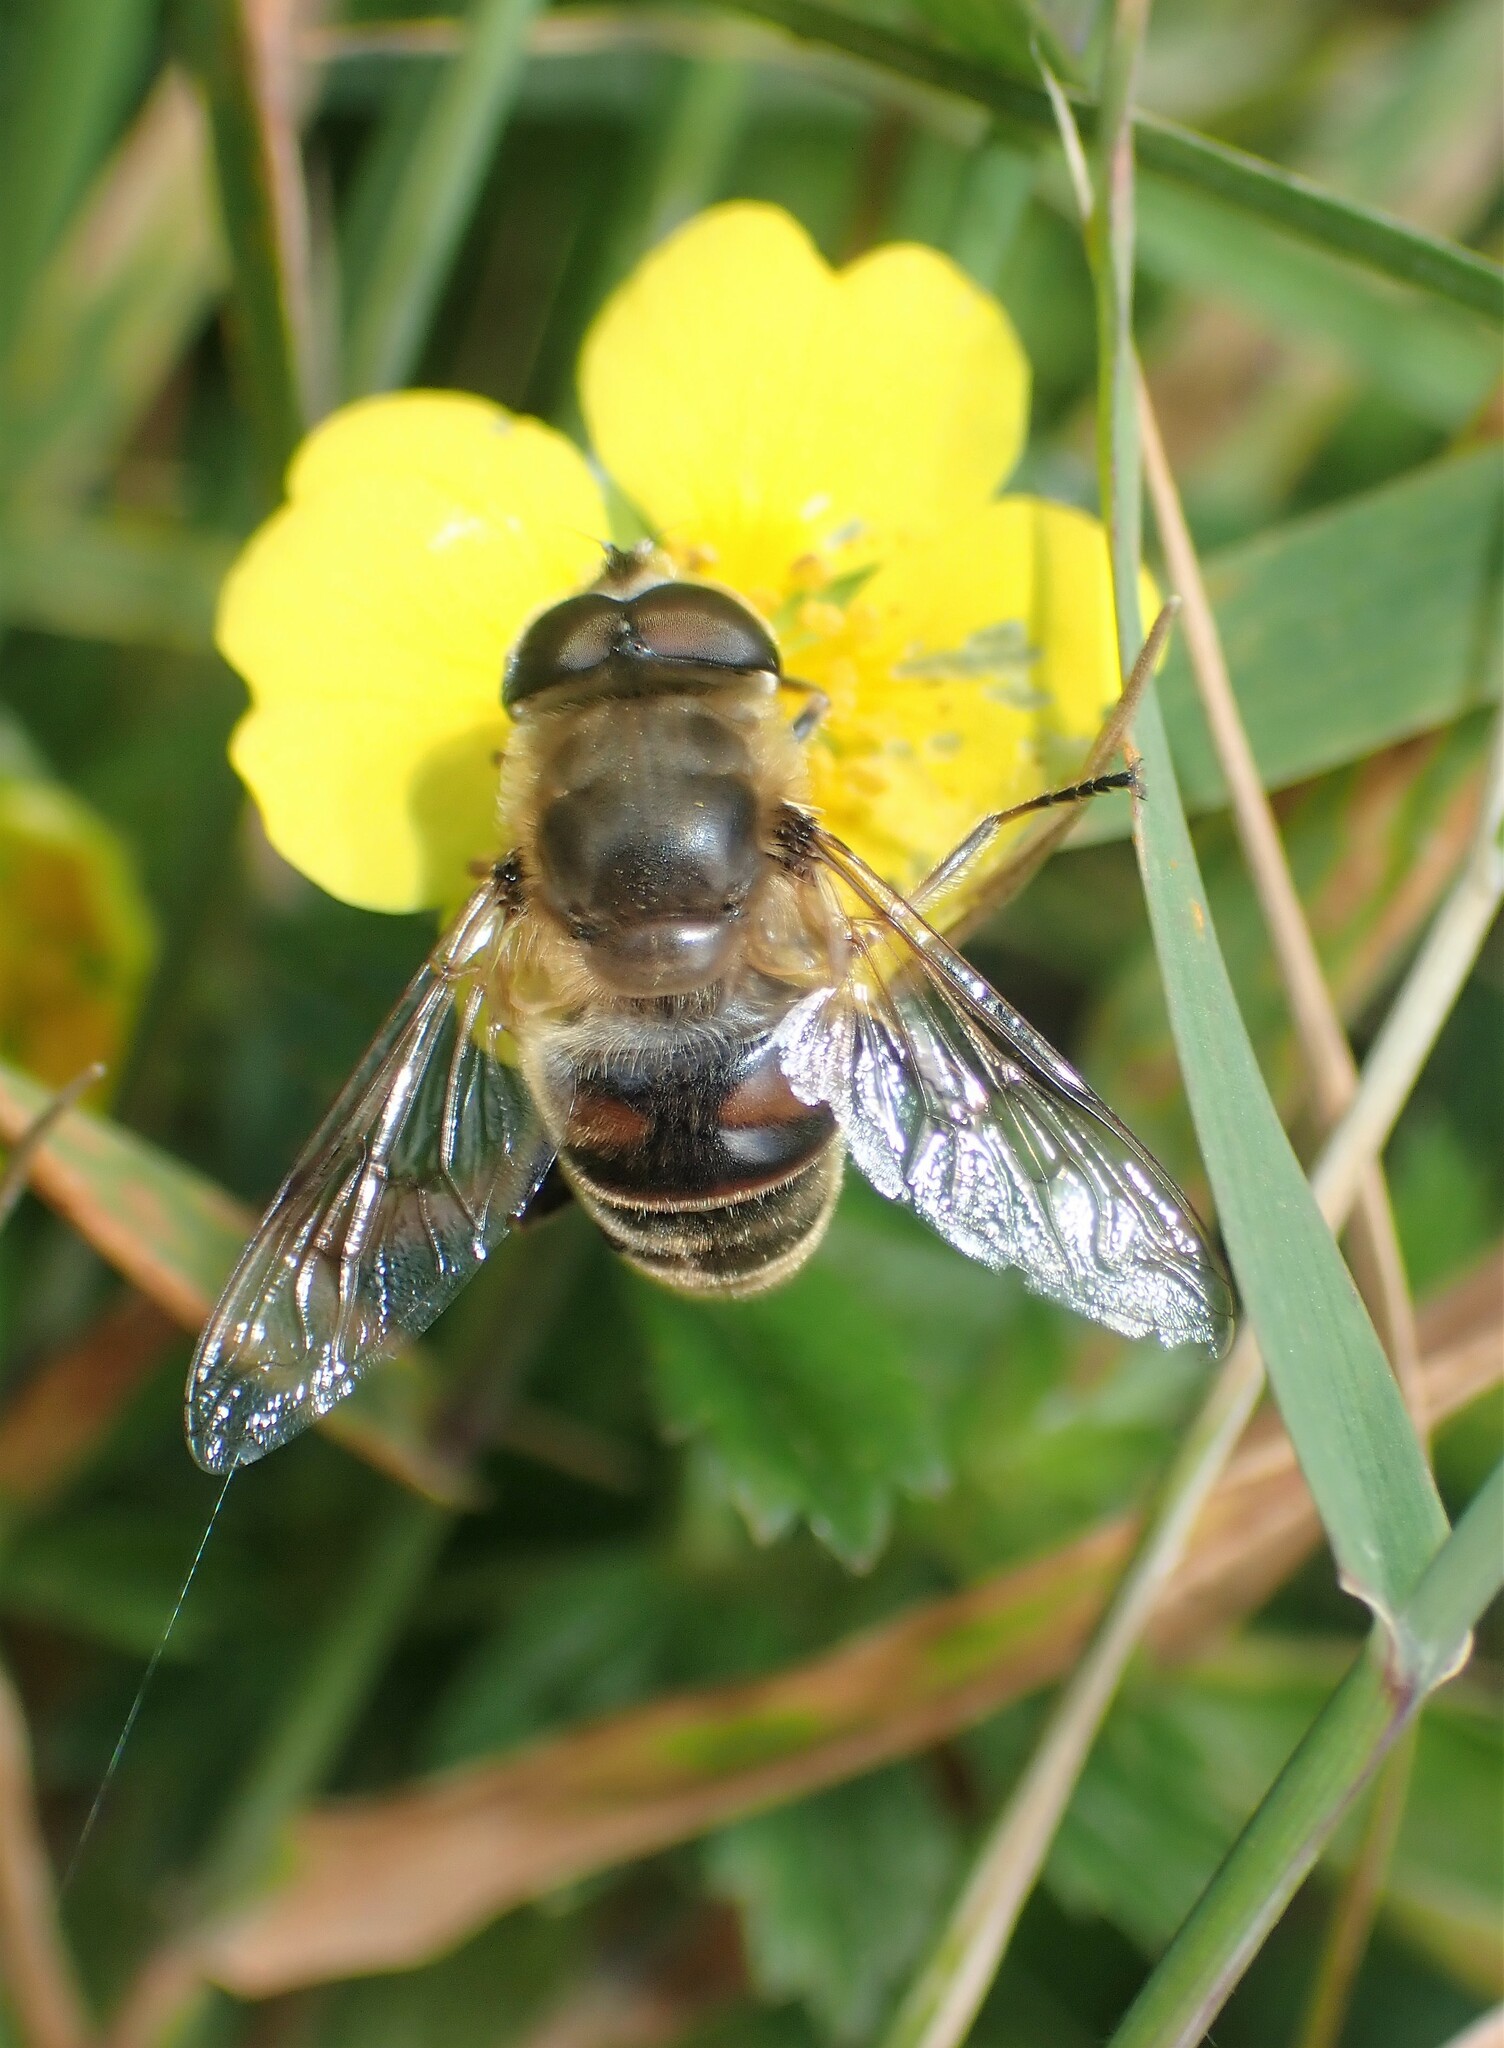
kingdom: Animalia
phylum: Arthropoda
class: Insecta
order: Diptera
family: Syrphidae
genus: Eristalis
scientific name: Eristalis tenax
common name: Drone fly
